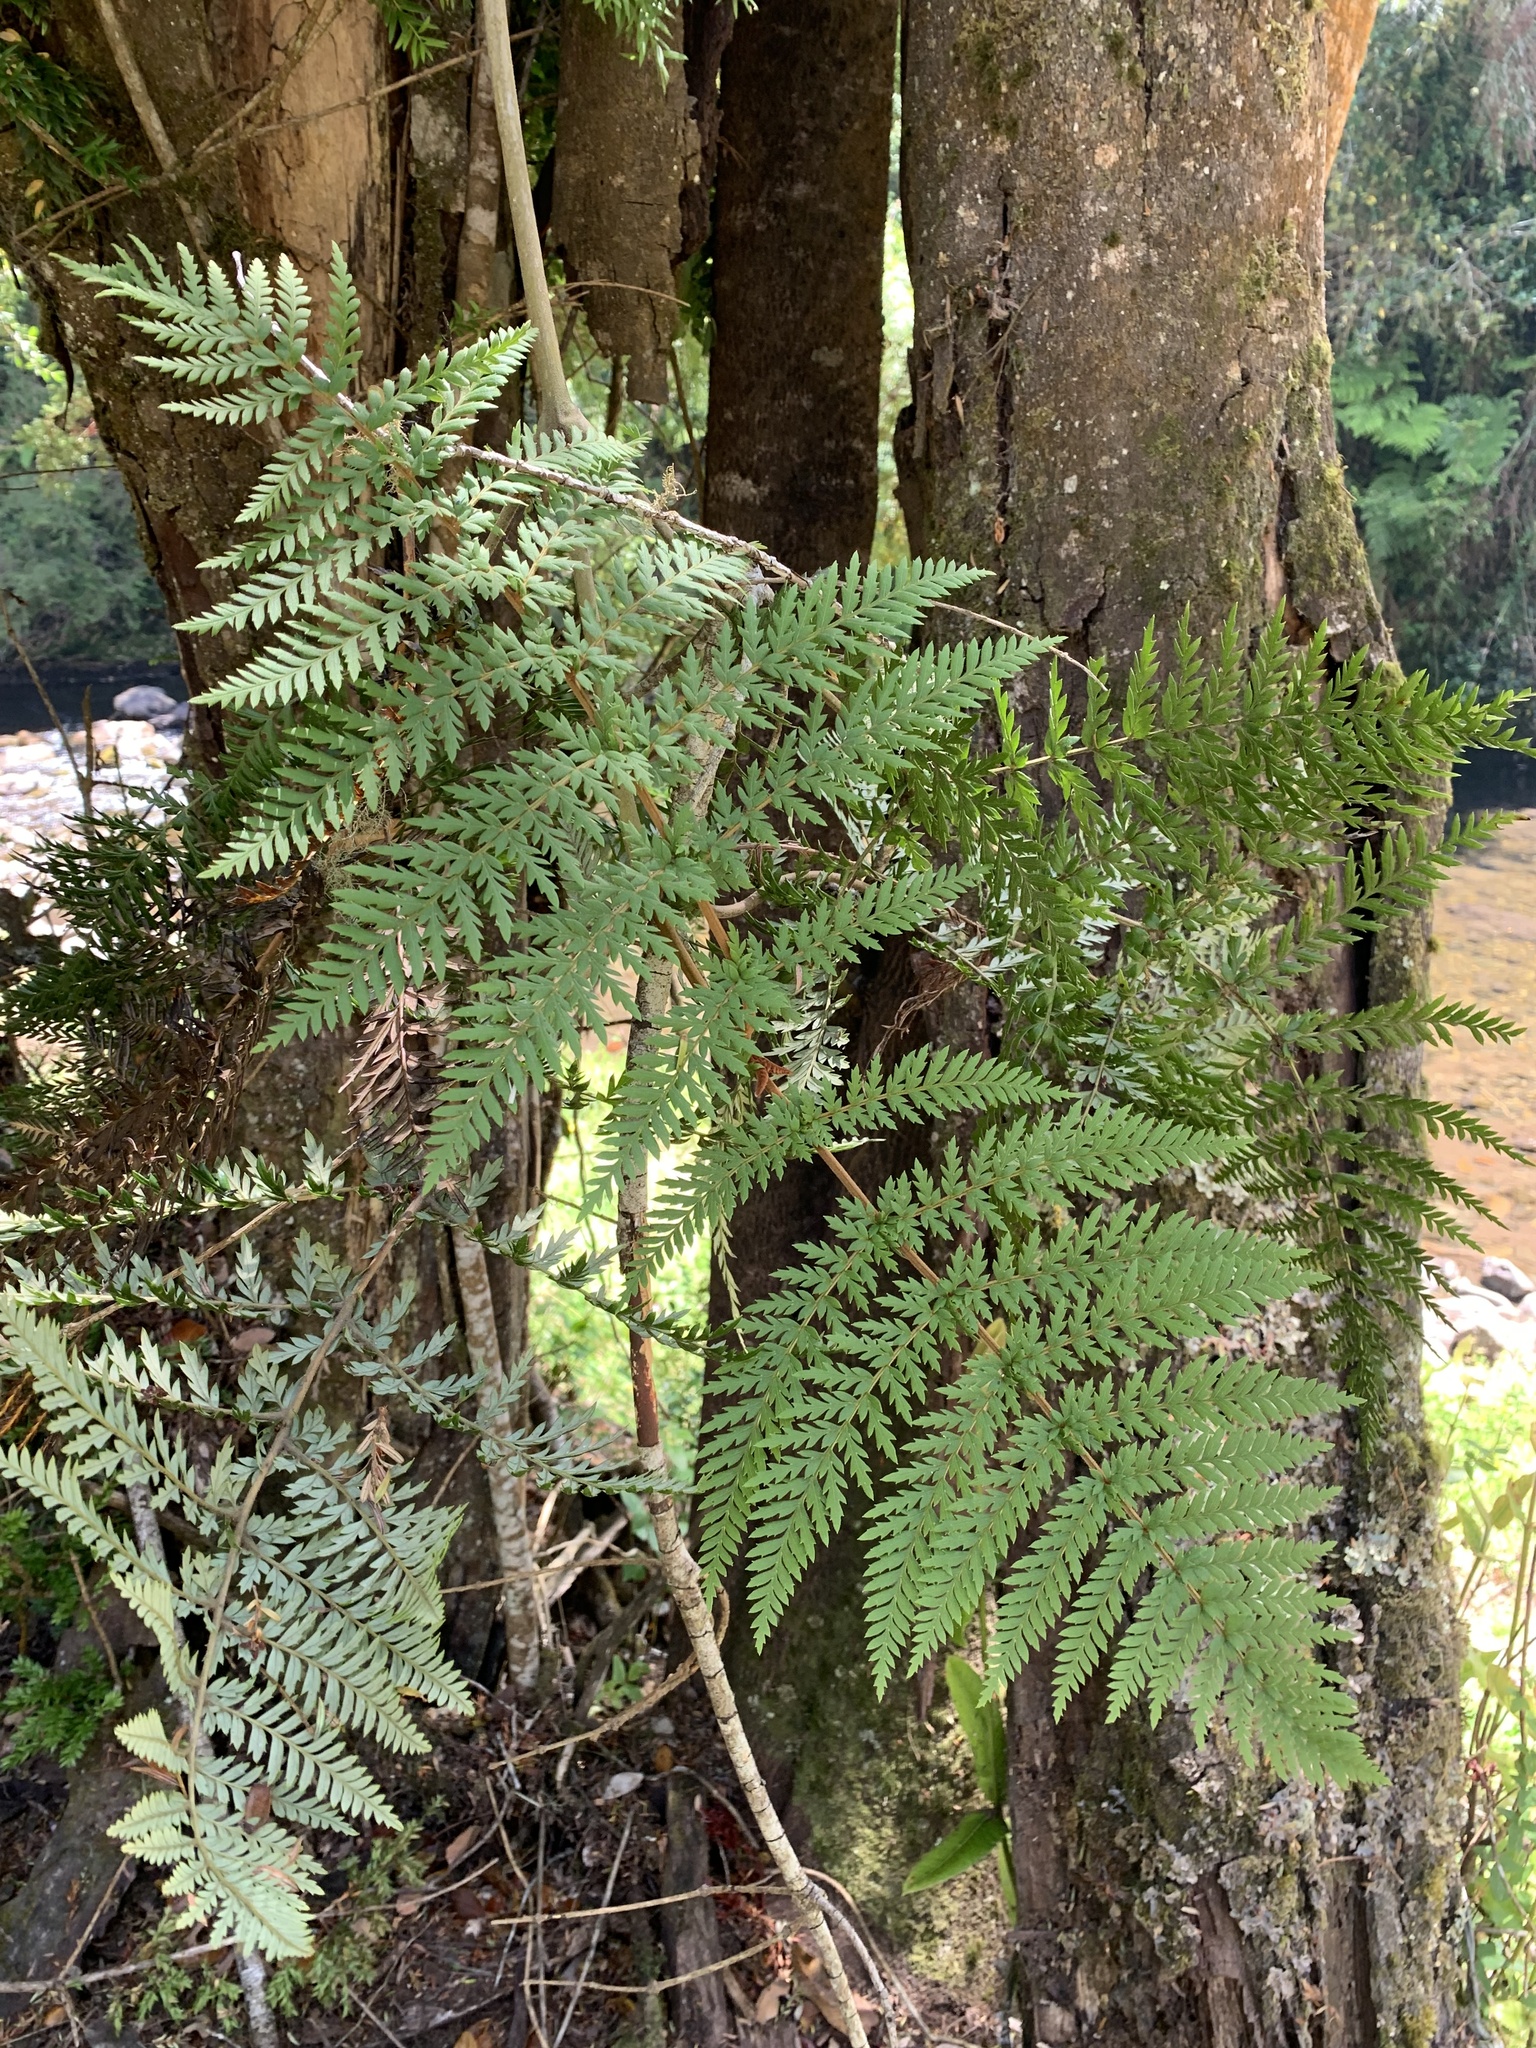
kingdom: Plantae
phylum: Tracheophyta
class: Magnoliopsida
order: Proteales
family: Proteaceae
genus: Lomatia
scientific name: Lomatia ferruginea
